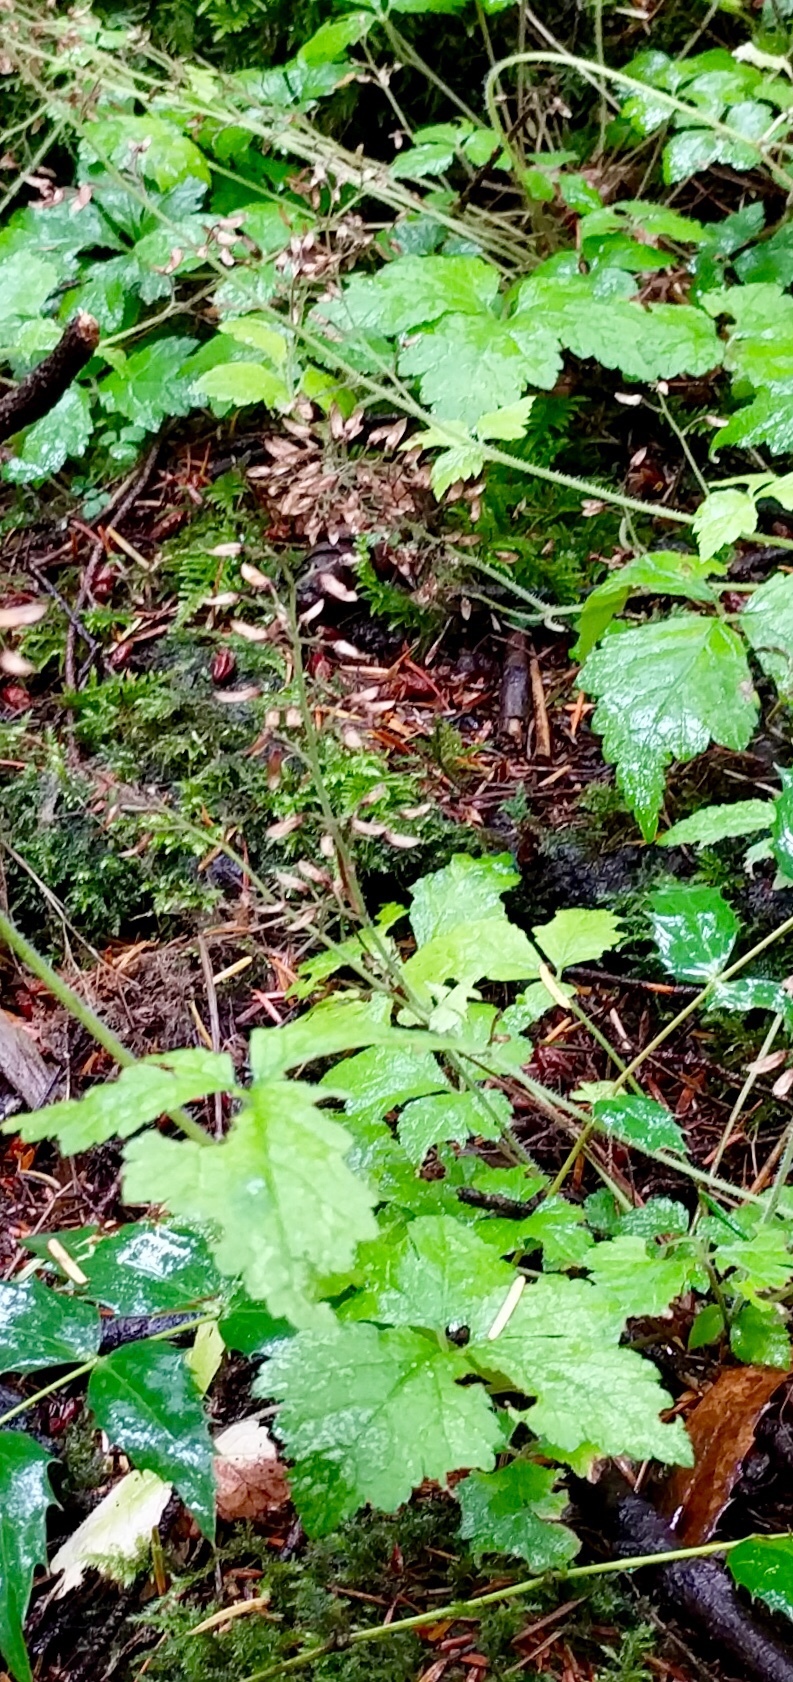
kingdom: Plantae
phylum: Tracheophyta
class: Magnoliopsida
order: Saxifragales
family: Saxifragaceae
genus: Tiarella
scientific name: Tiarella trifoliata
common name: Sugar-scoop
